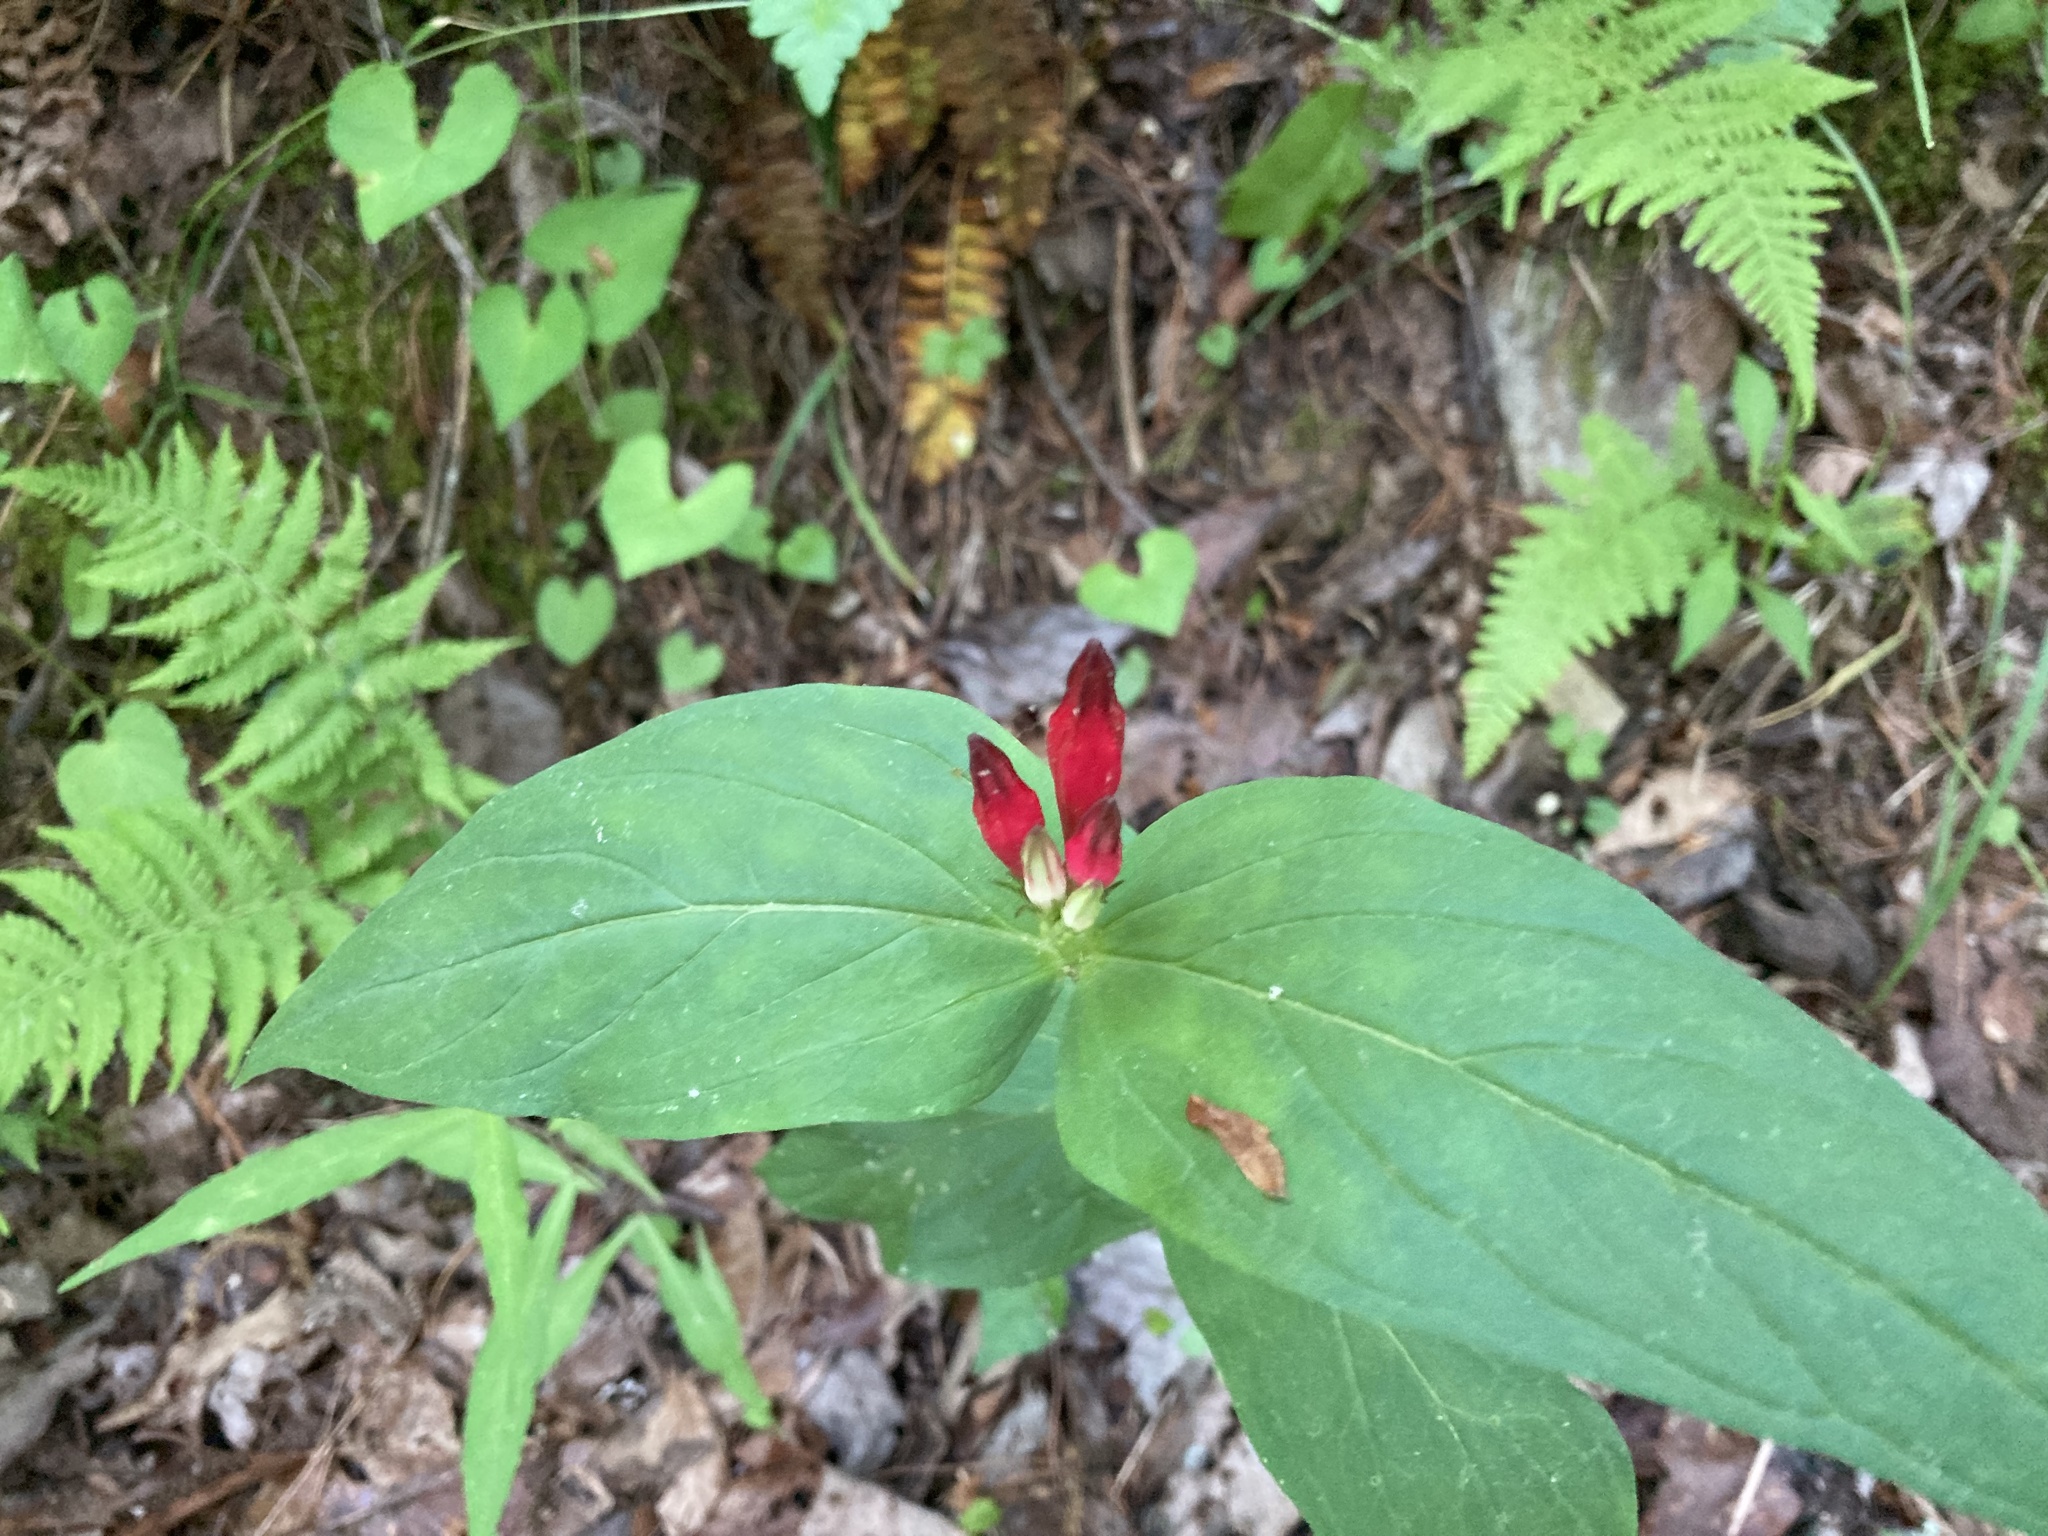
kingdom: Plantae
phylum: Tracheophyta
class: Magnoliopsida
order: Gentianales
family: Loganiaceae
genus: Spigelia
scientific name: Spigelia marilandica
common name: Indian-pink
